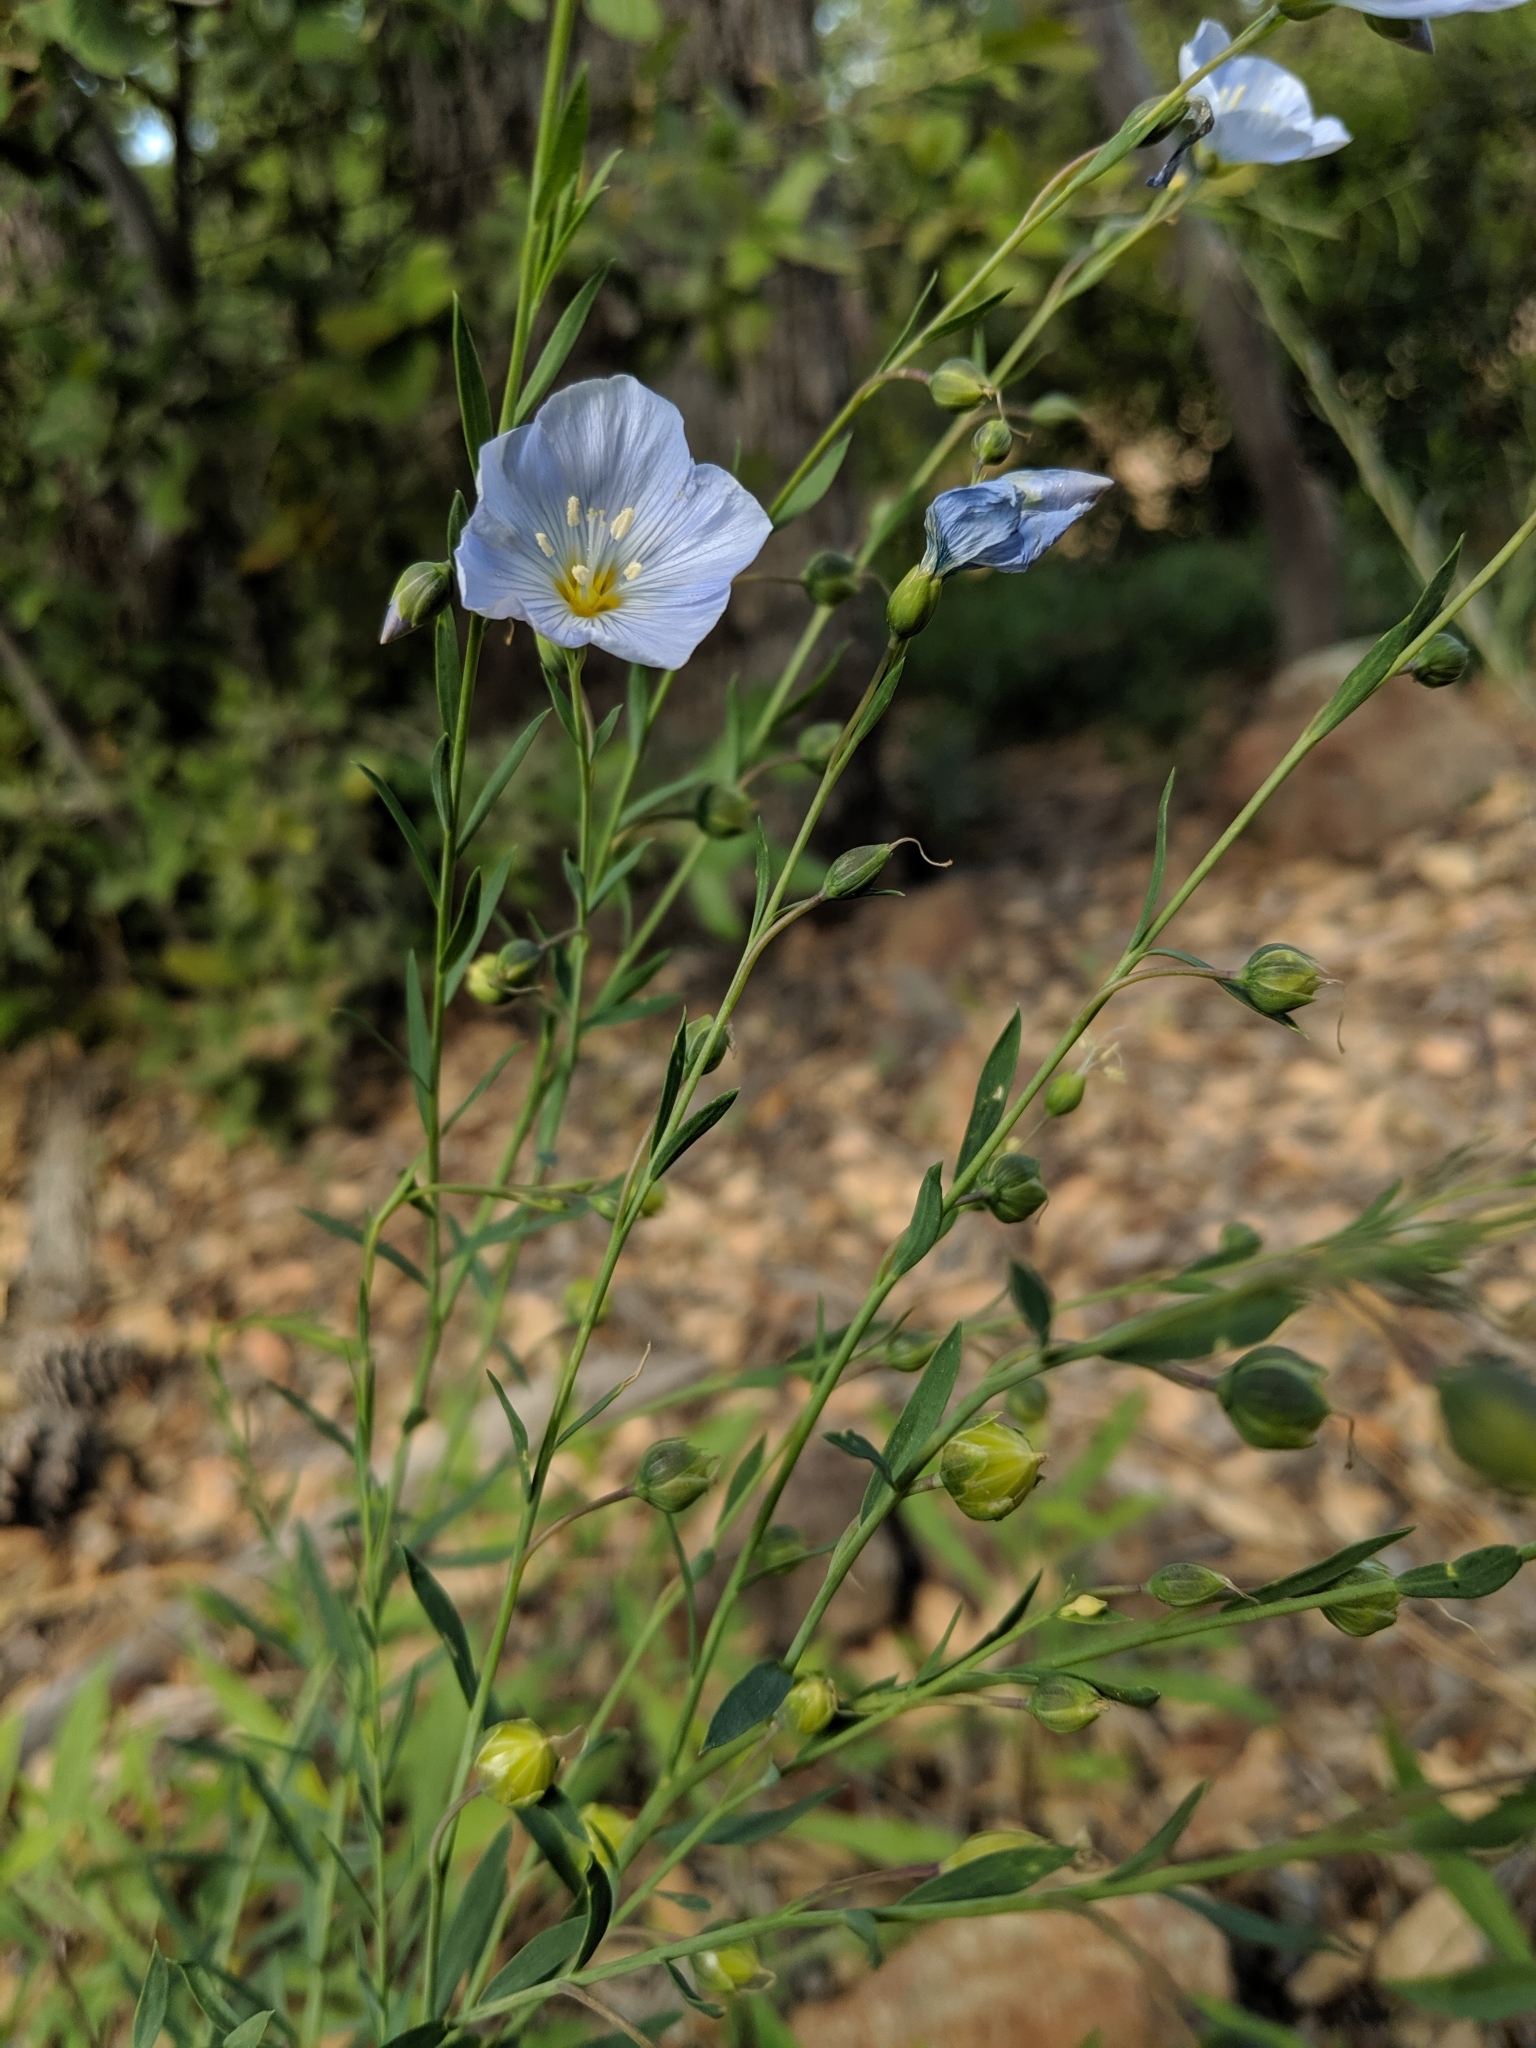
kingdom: Plantae
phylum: Tracheophyta
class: Magnoliopsida
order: Malpighiales
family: Linaceae
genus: Linum
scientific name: Linum lewisii
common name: Prairie flax
